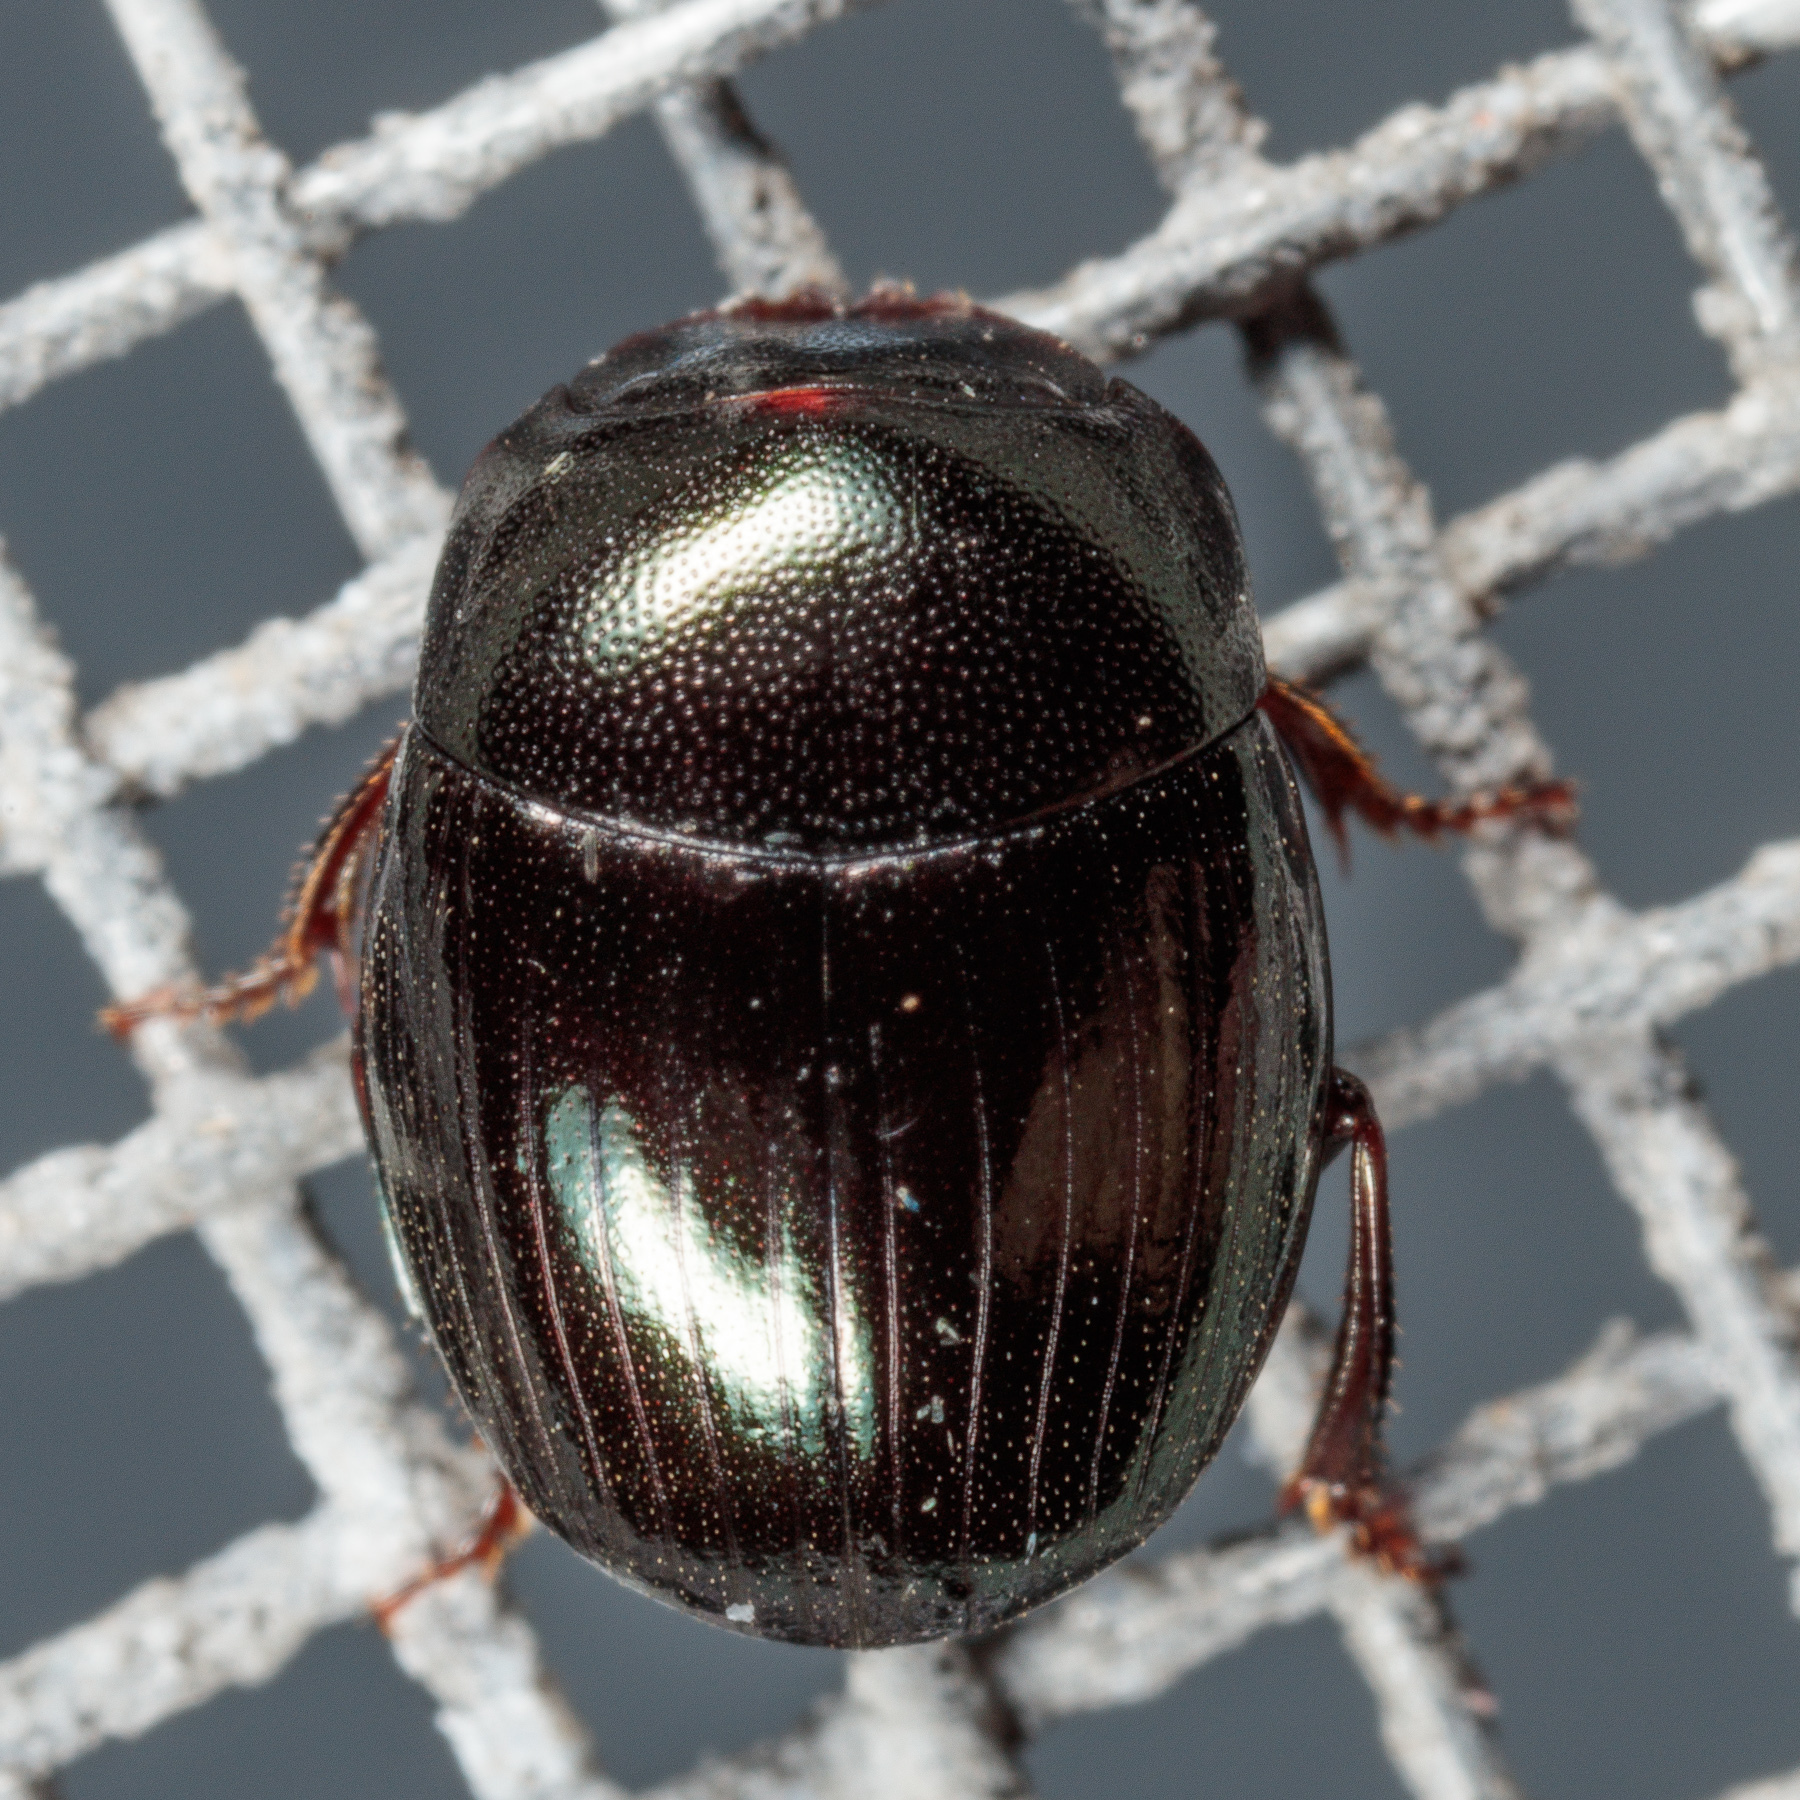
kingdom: Animalia
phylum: Arthropoda
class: Insecta
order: Coleoptera
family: Scarabaeidae
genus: Pseudocanthon
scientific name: Pseudocanthon perplexus
